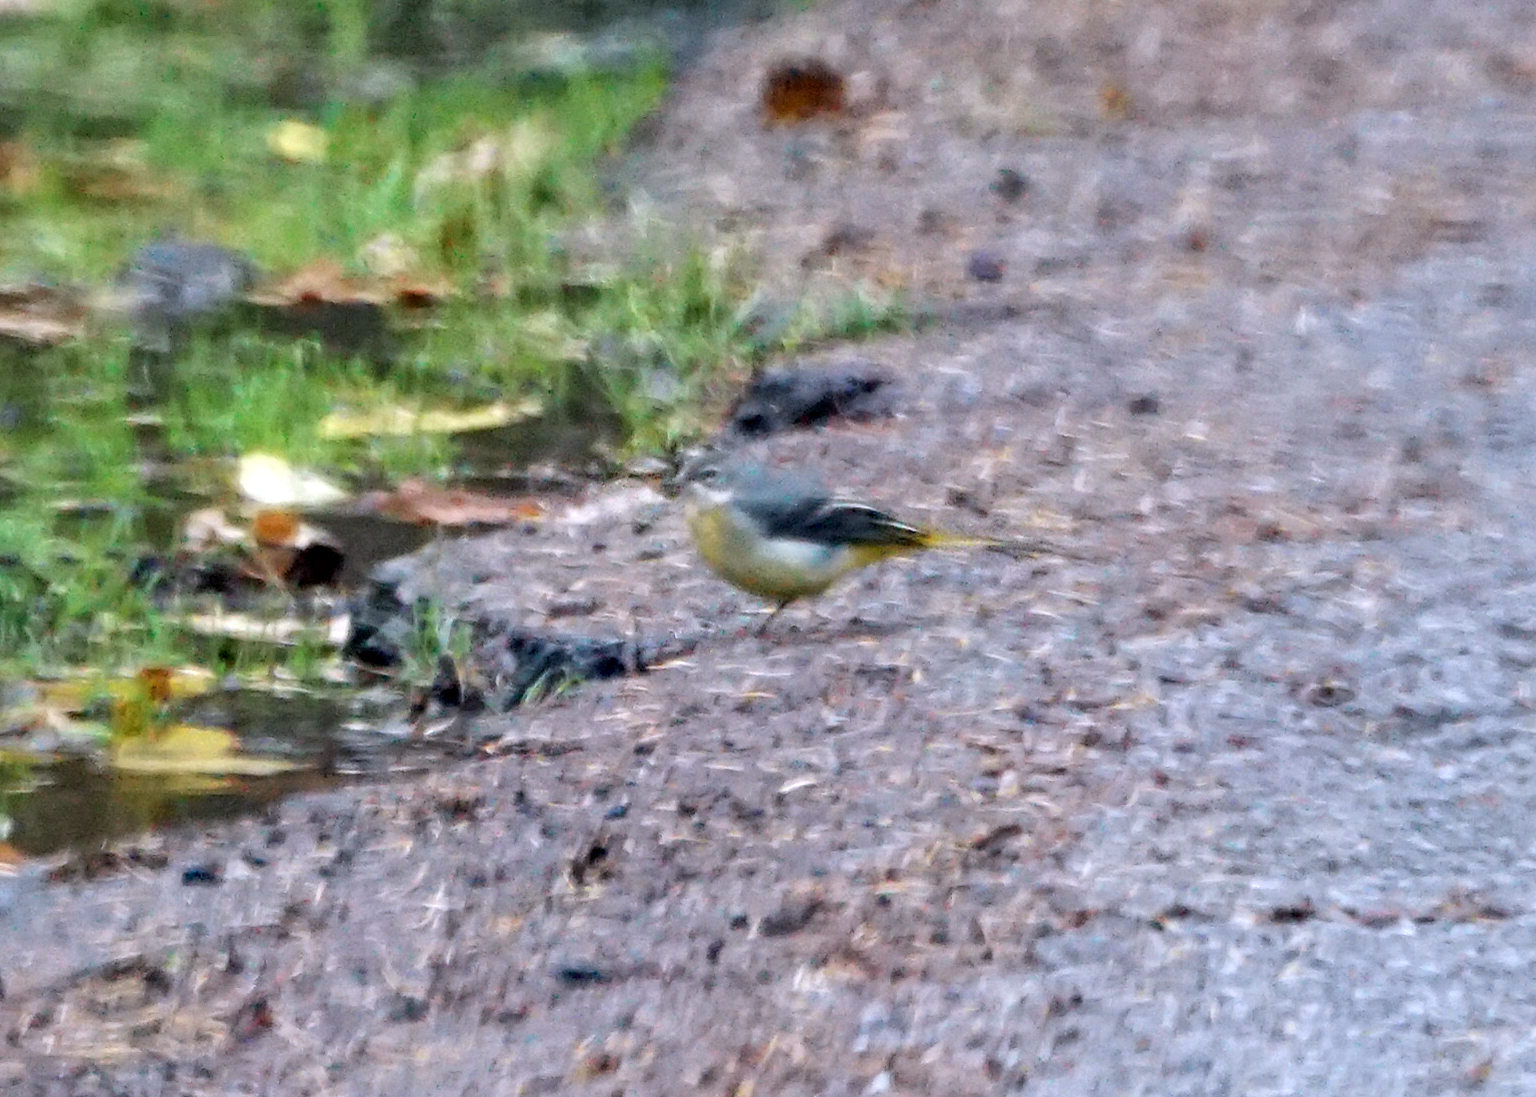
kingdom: Animalia
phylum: Chordata
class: Aves
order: Passeriformes
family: Motacillidae
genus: Motacilla
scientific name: Motacilla cinerea
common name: Grey wagtail
